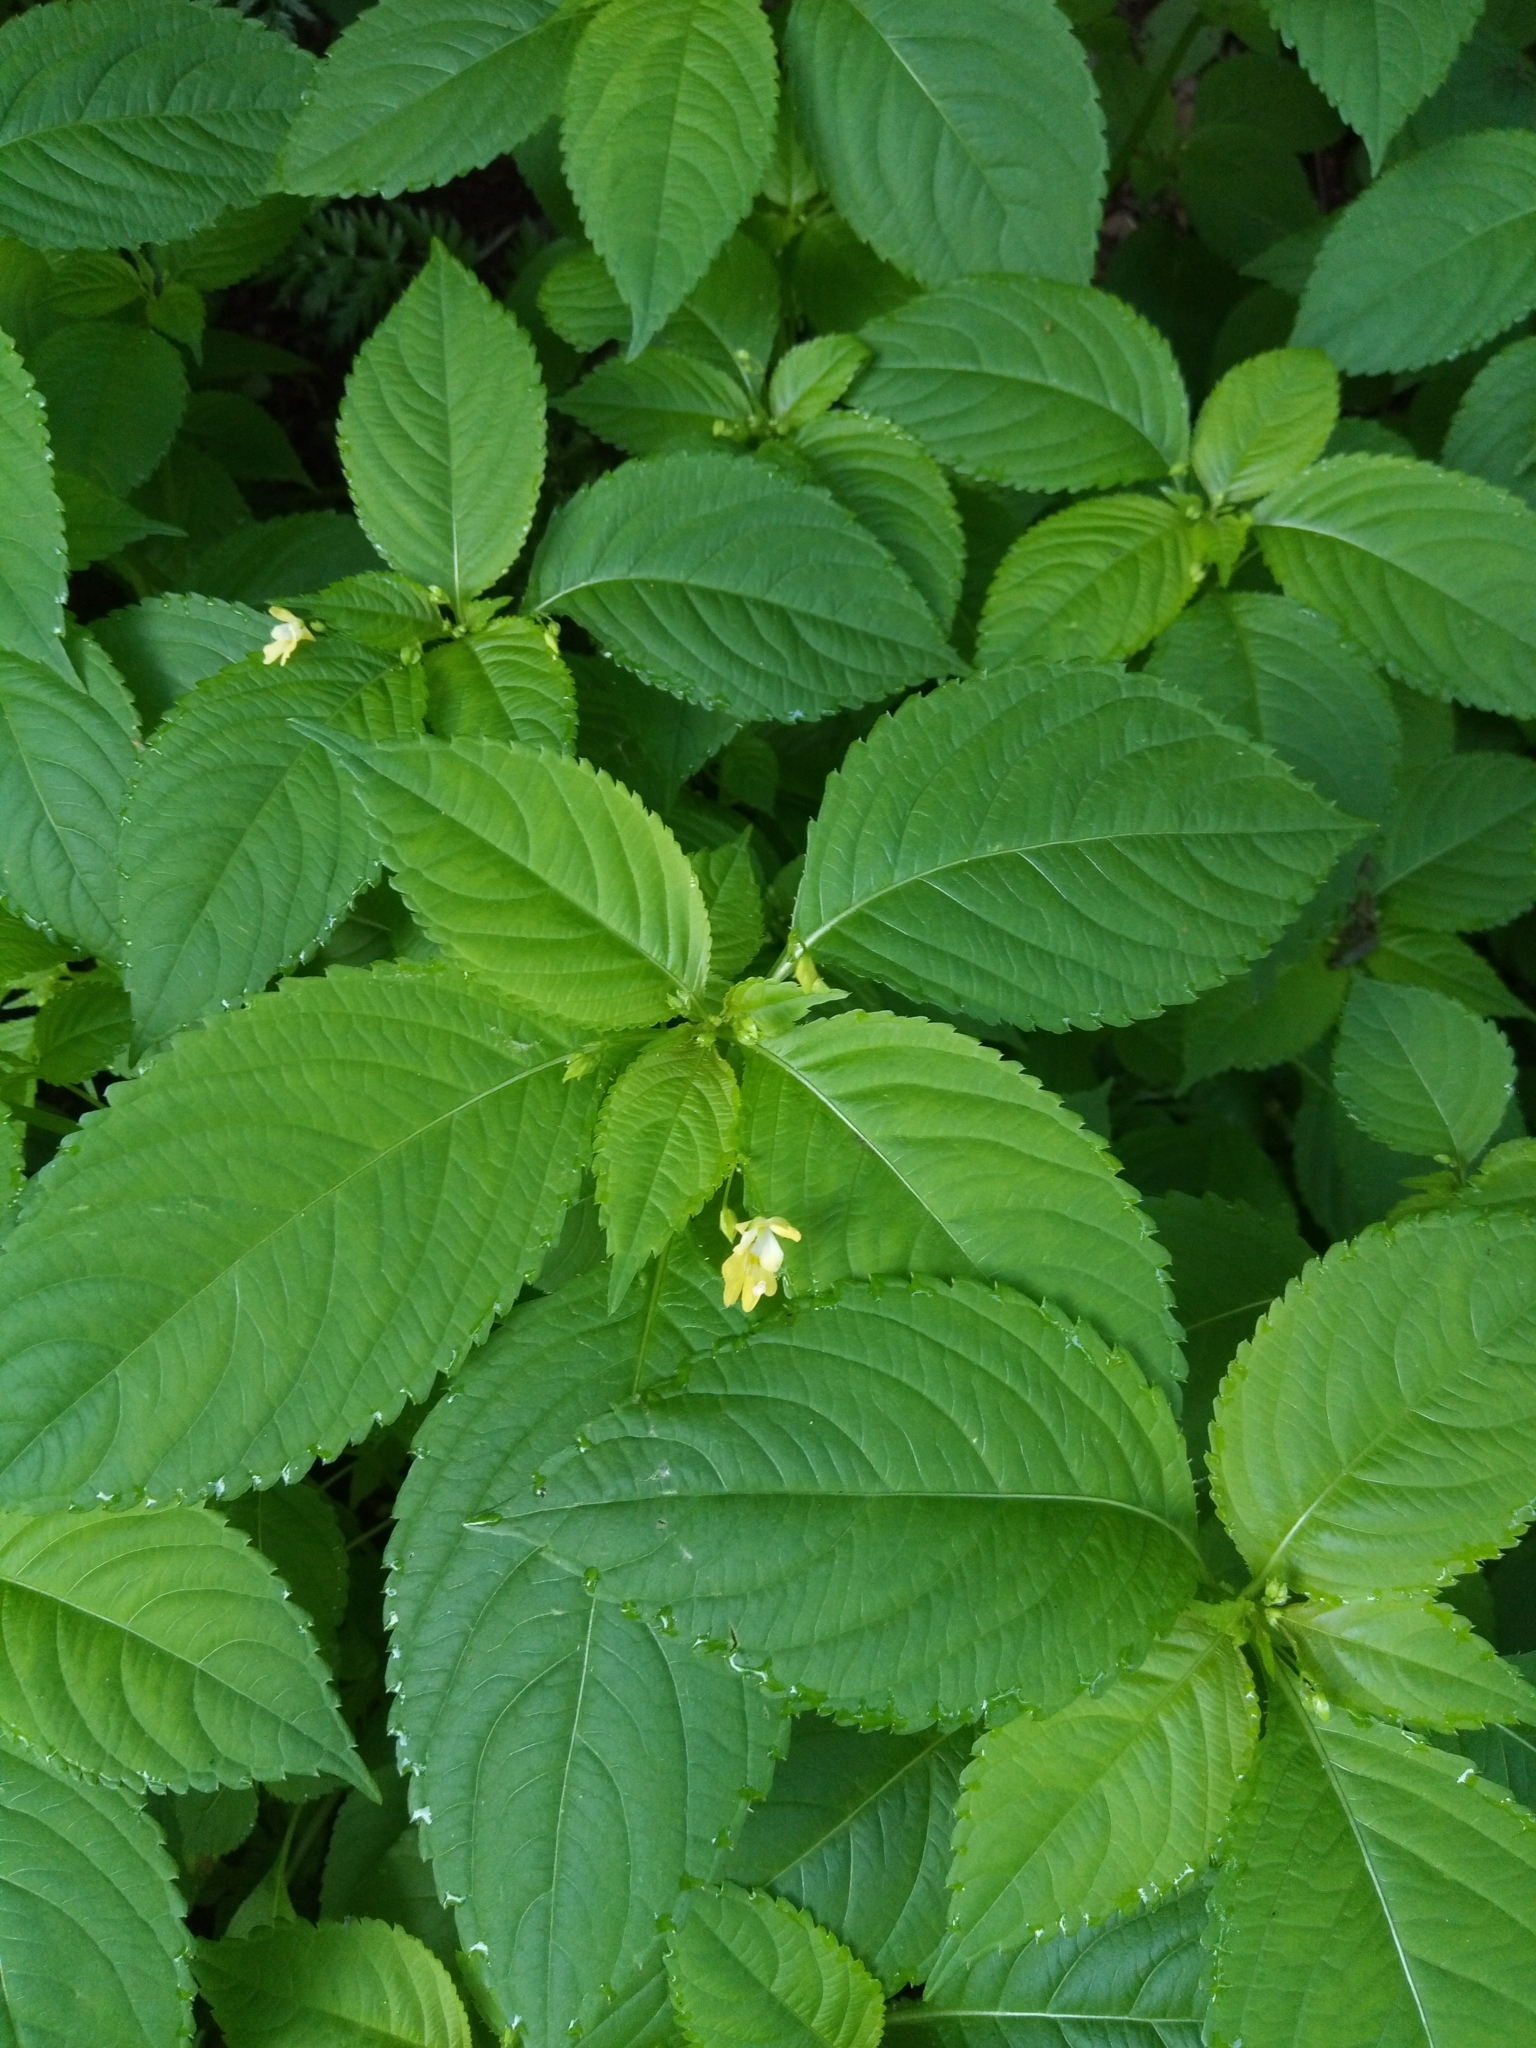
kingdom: Plantae
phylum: Tracheophyta
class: Magnoliopsida
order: Ericales
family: Balsaminaceae
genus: Impatiens
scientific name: Impatiens parviflora
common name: Small balsam
